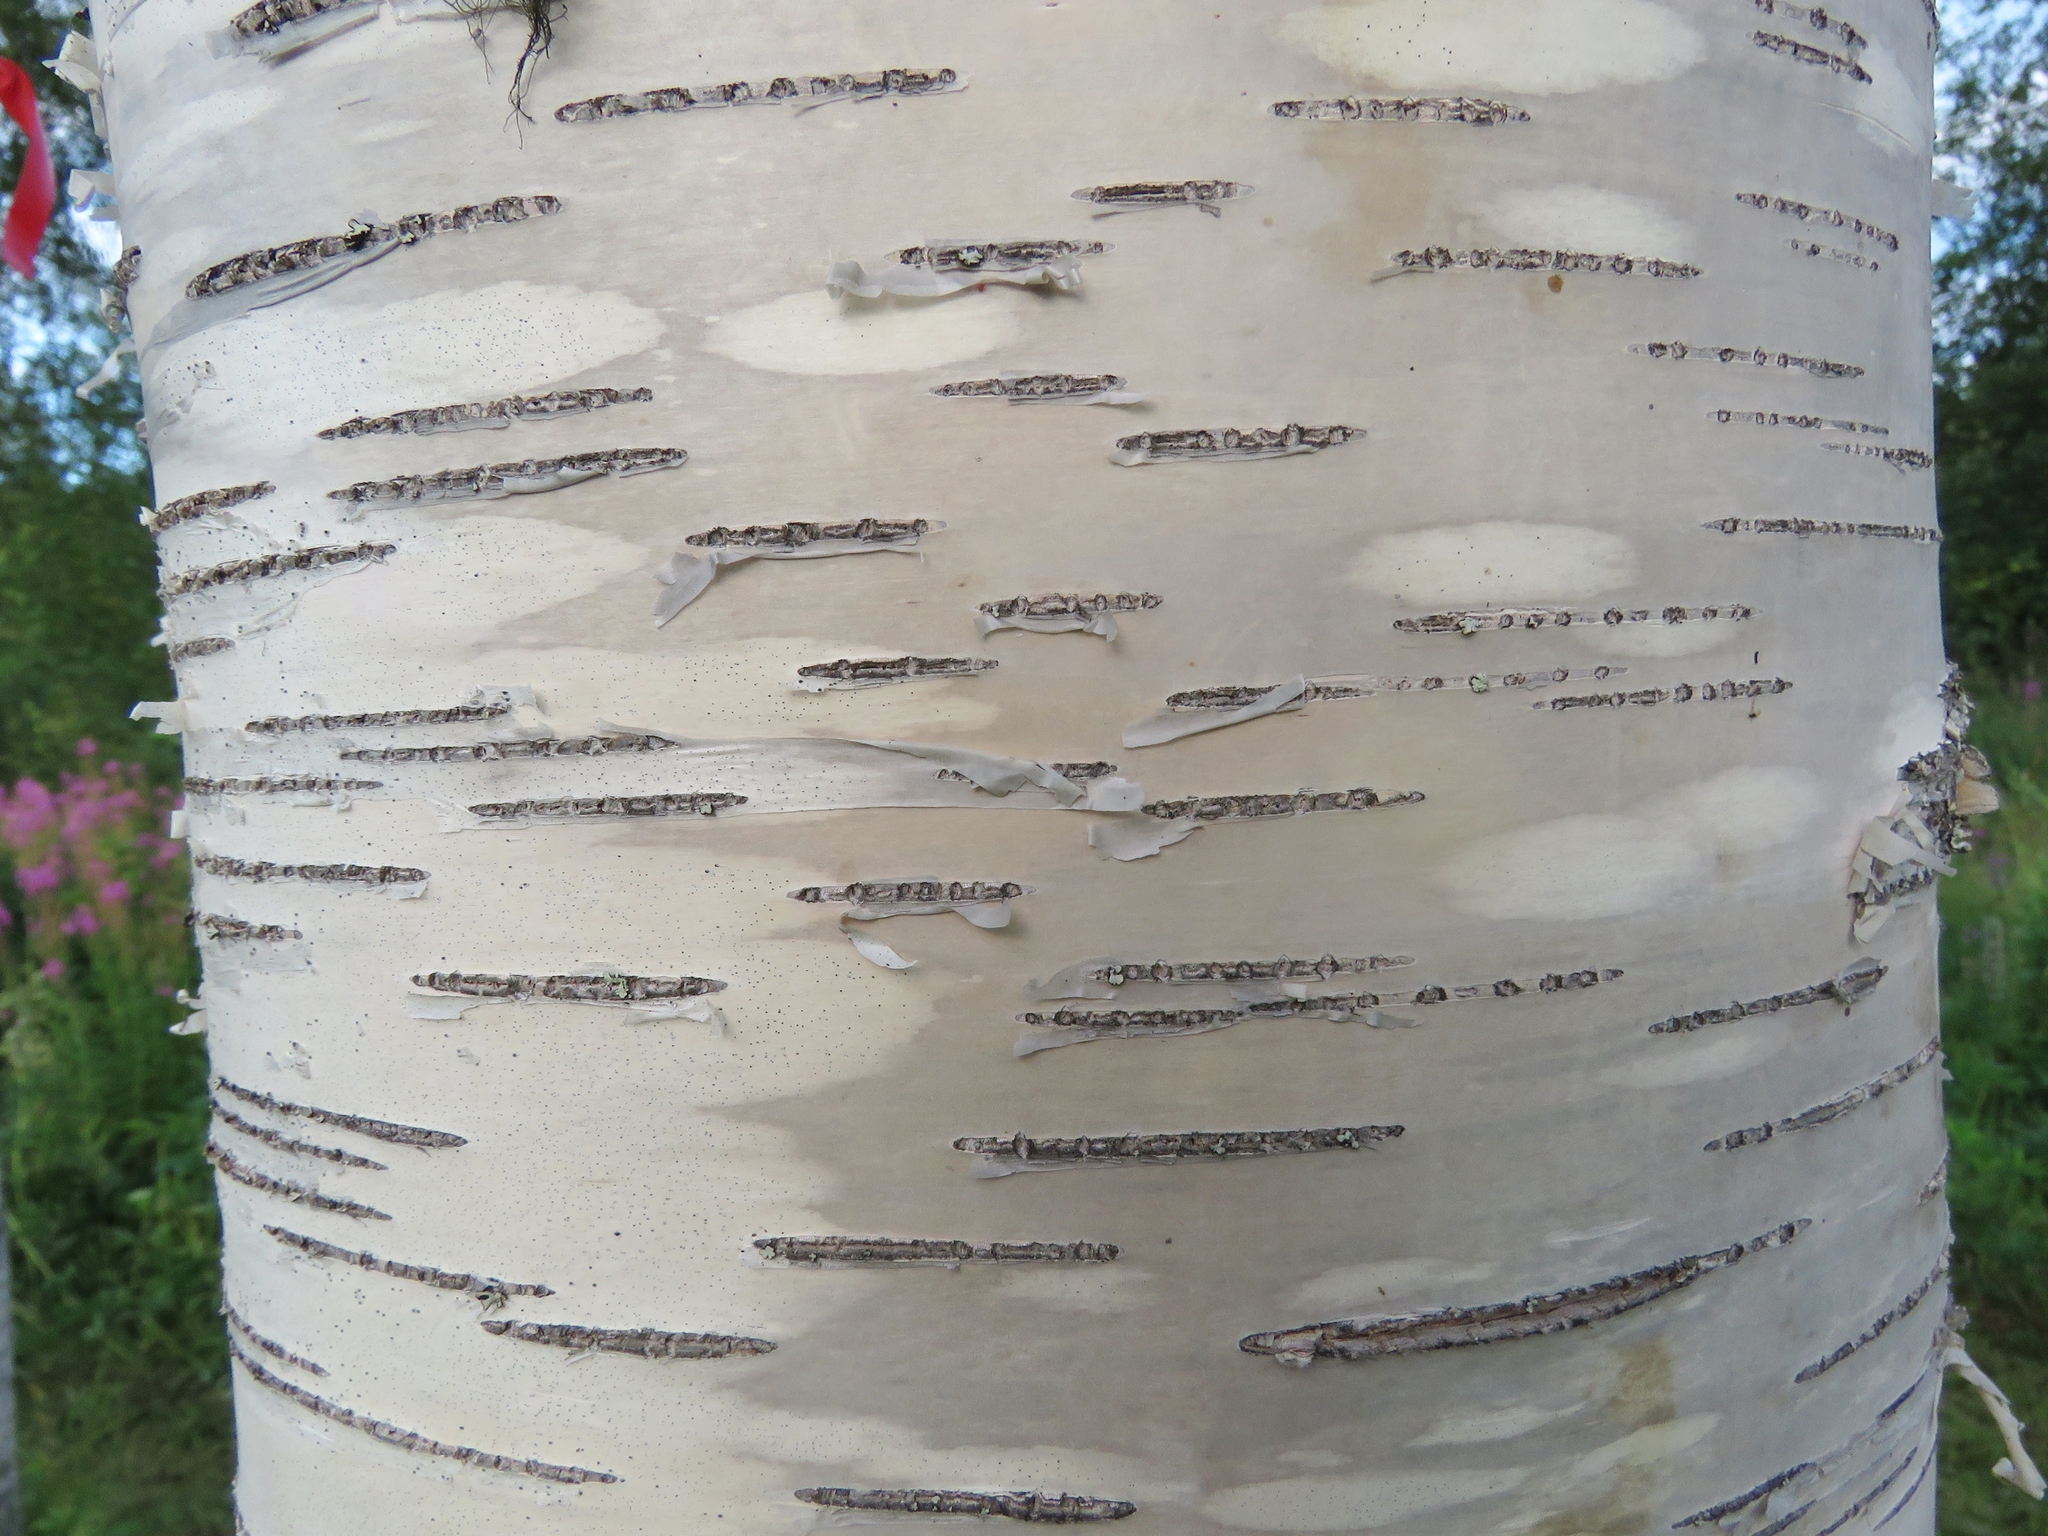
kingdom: Plantae
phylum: Tracheophyta
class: Magnoliopsida
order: Fagales
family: Betulaceae
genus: Betula
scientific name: Betula pendula
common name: Silver birch
